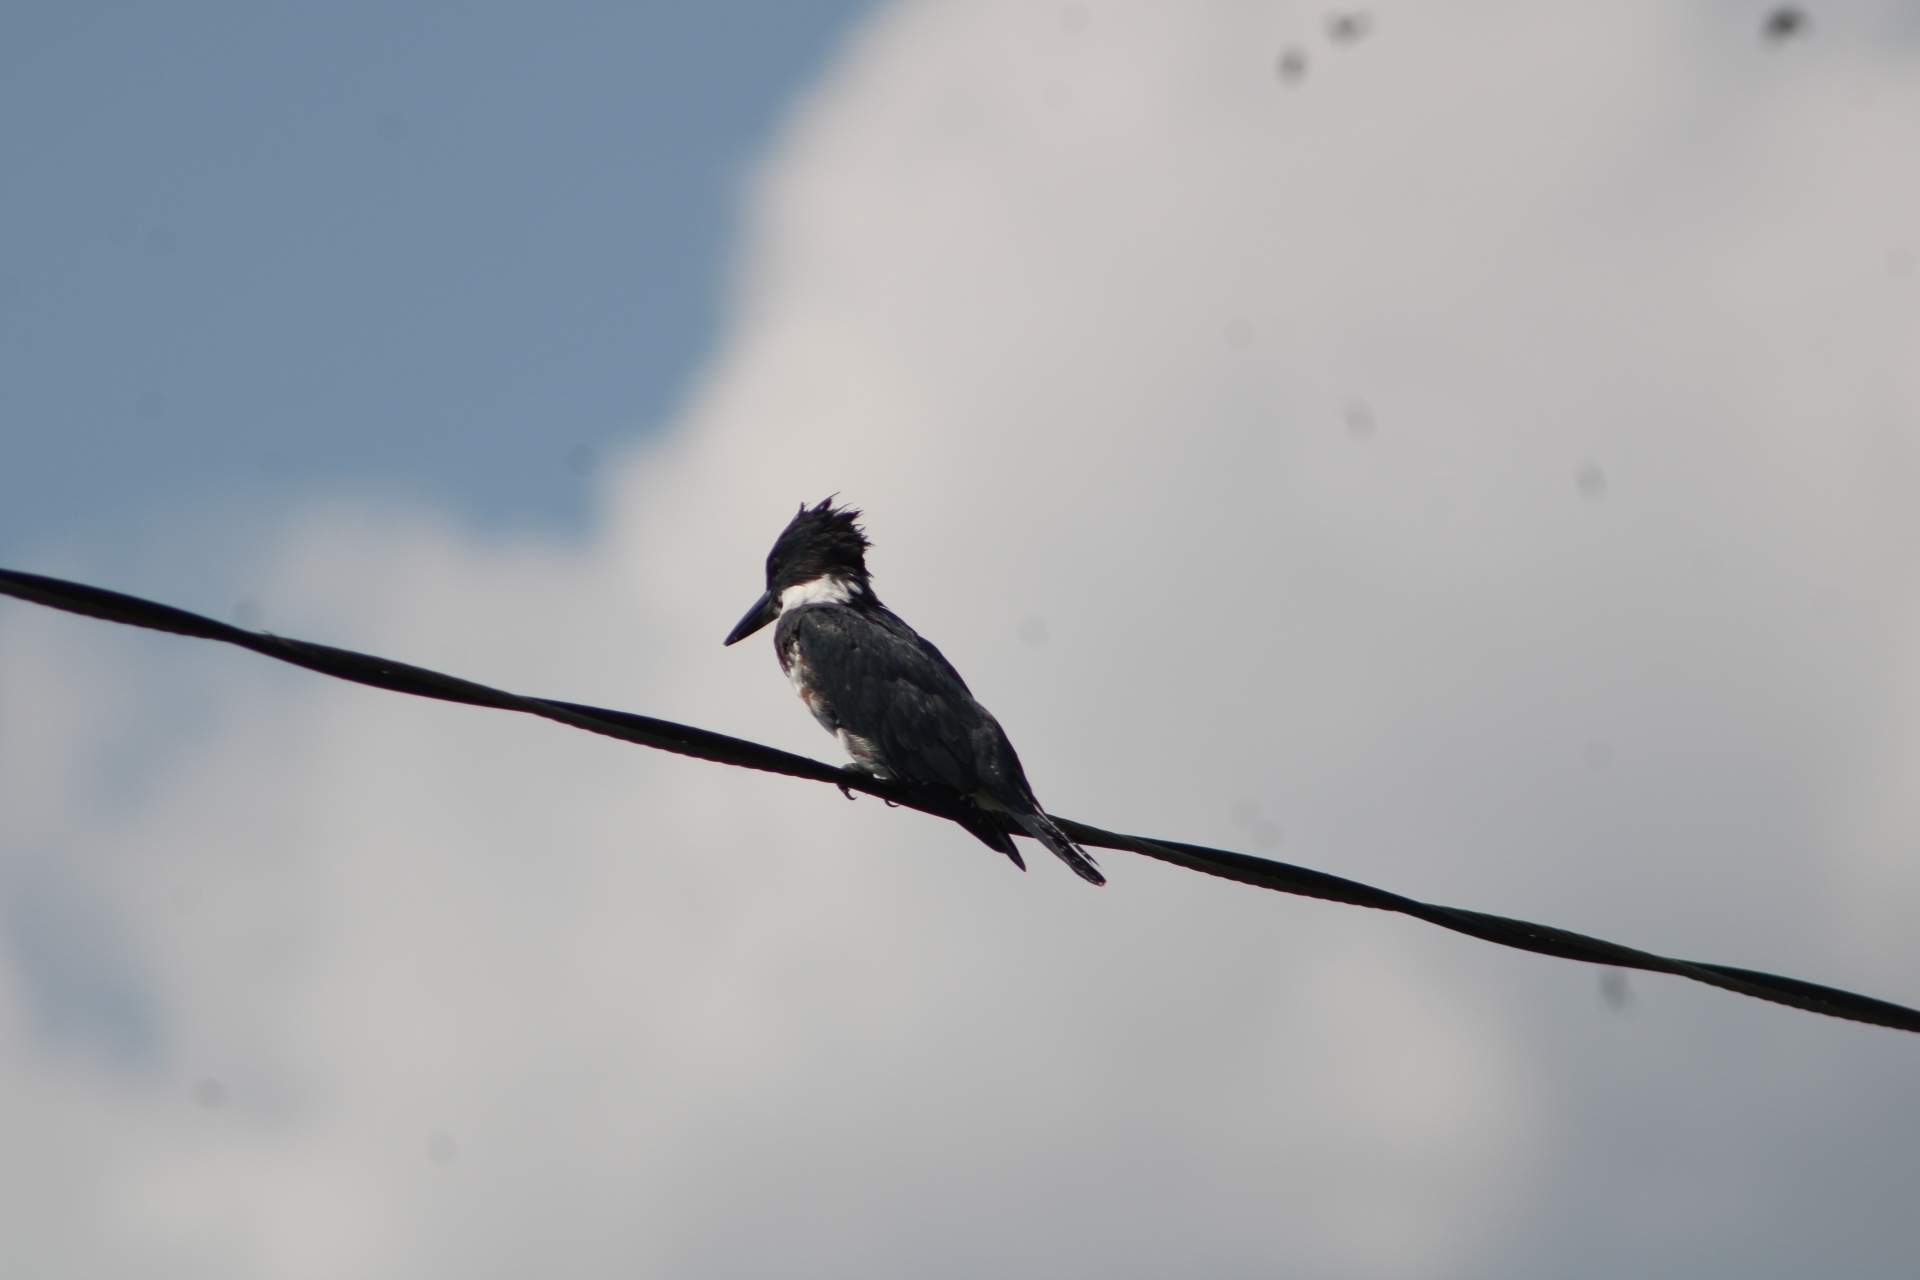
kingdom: Animalia
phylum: Chordata
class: Aves
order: Coraciiformes
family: Alcedinidae
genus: Megaceryle
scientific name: Megaceryle alcyon
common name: Belted kingfisher
